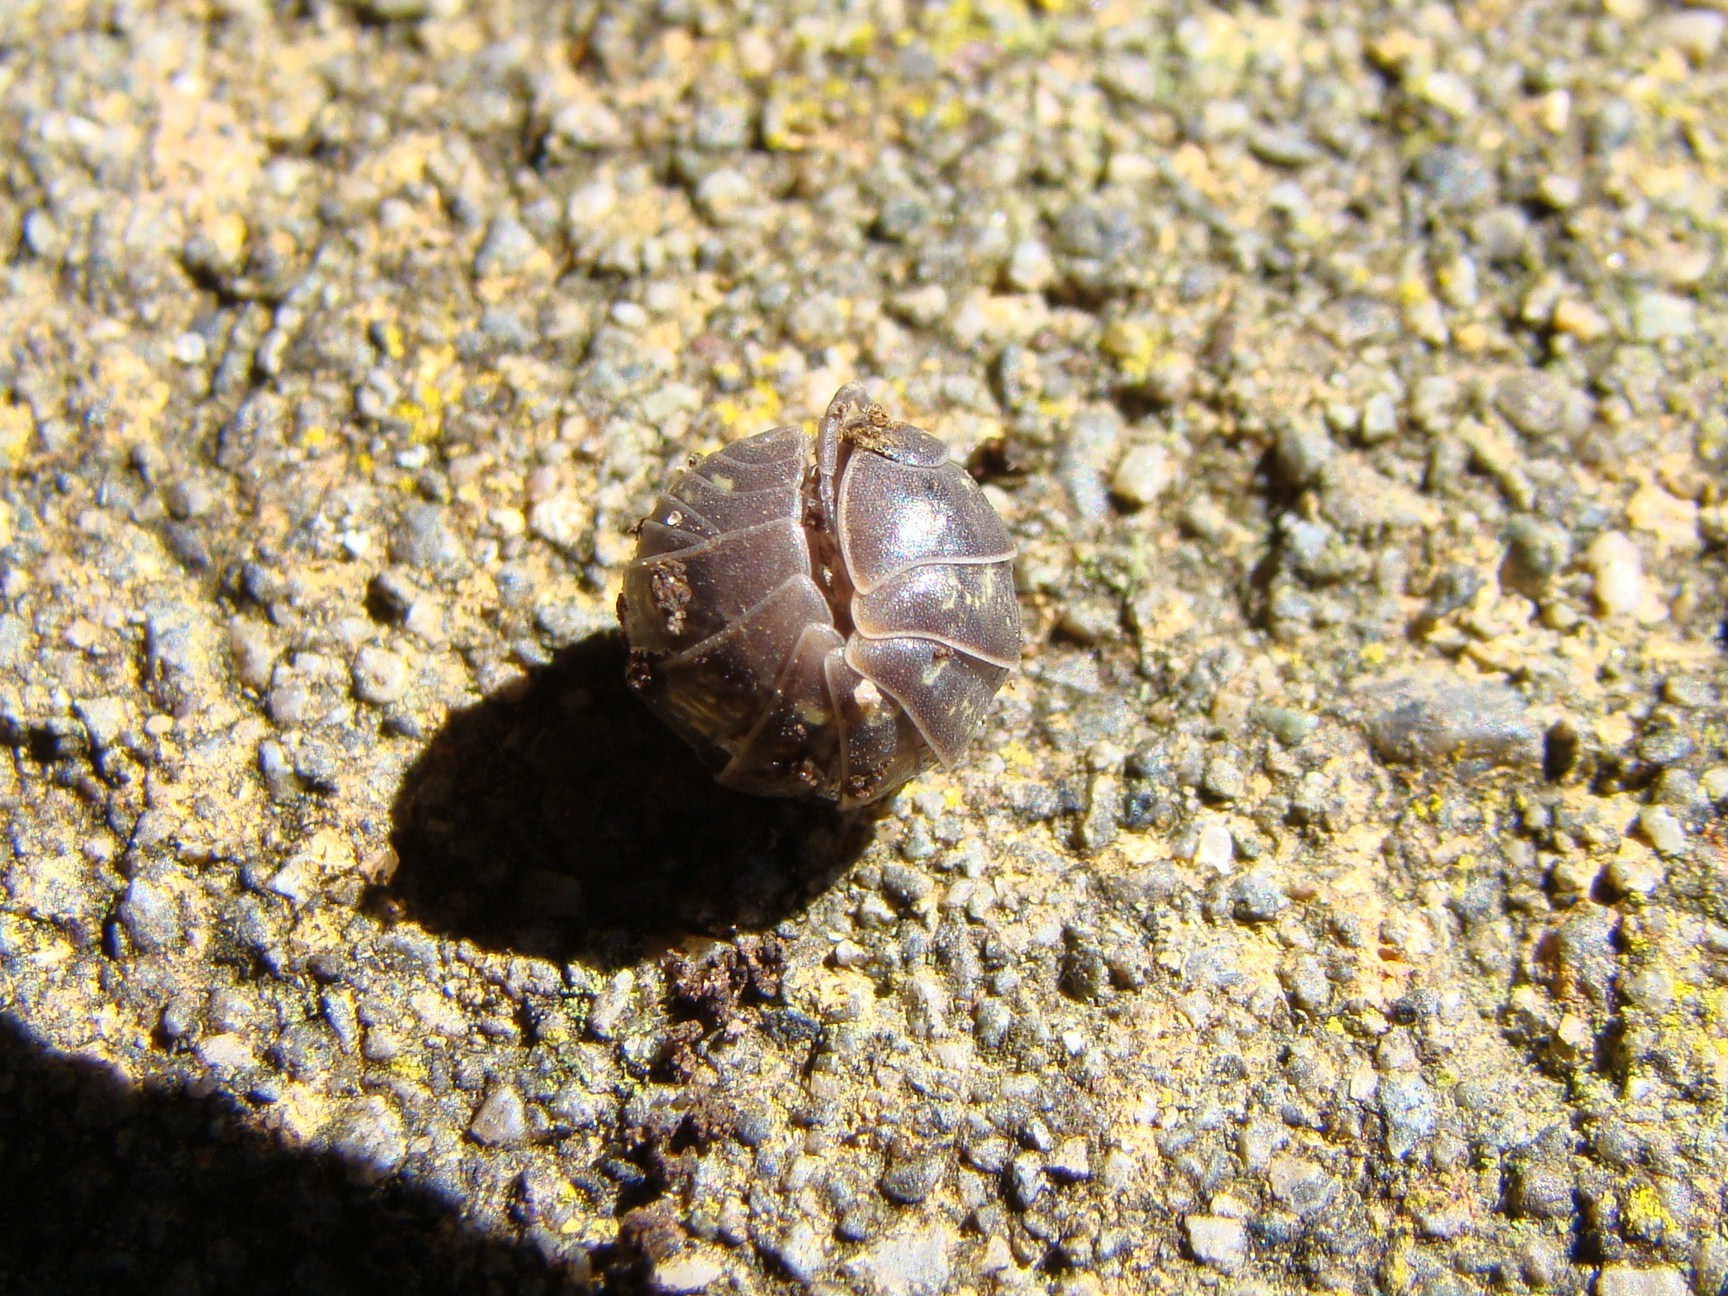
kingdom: Animalia
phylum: Arthropoda
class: Malacostraca
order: Isopoda
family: Armadillidiidae
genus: Armadillidium
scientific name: Armadillidium vulgare
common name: Common pill woodlouse
